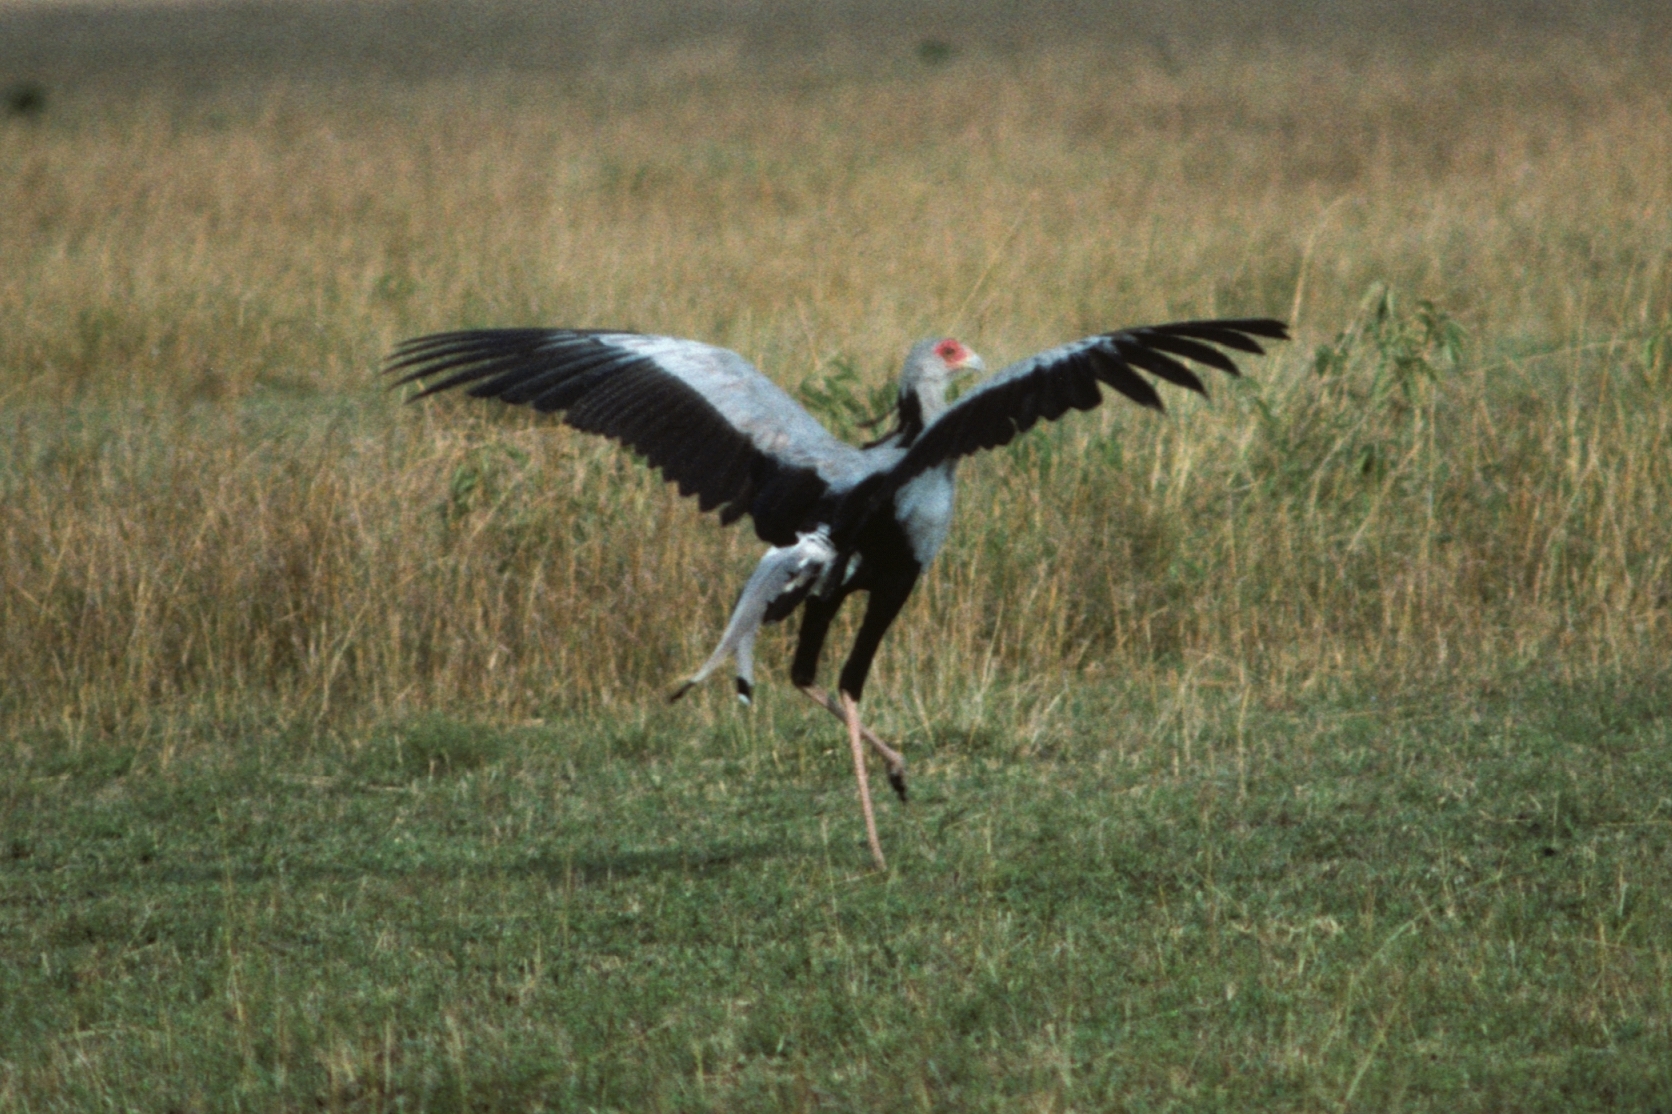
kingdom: Animalia
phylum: Chordata
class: Aves
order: Accipitriformes
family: Sagittariidae
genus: Sagittarius
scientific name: Sagittarius serpentarius
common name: Secretarybird
